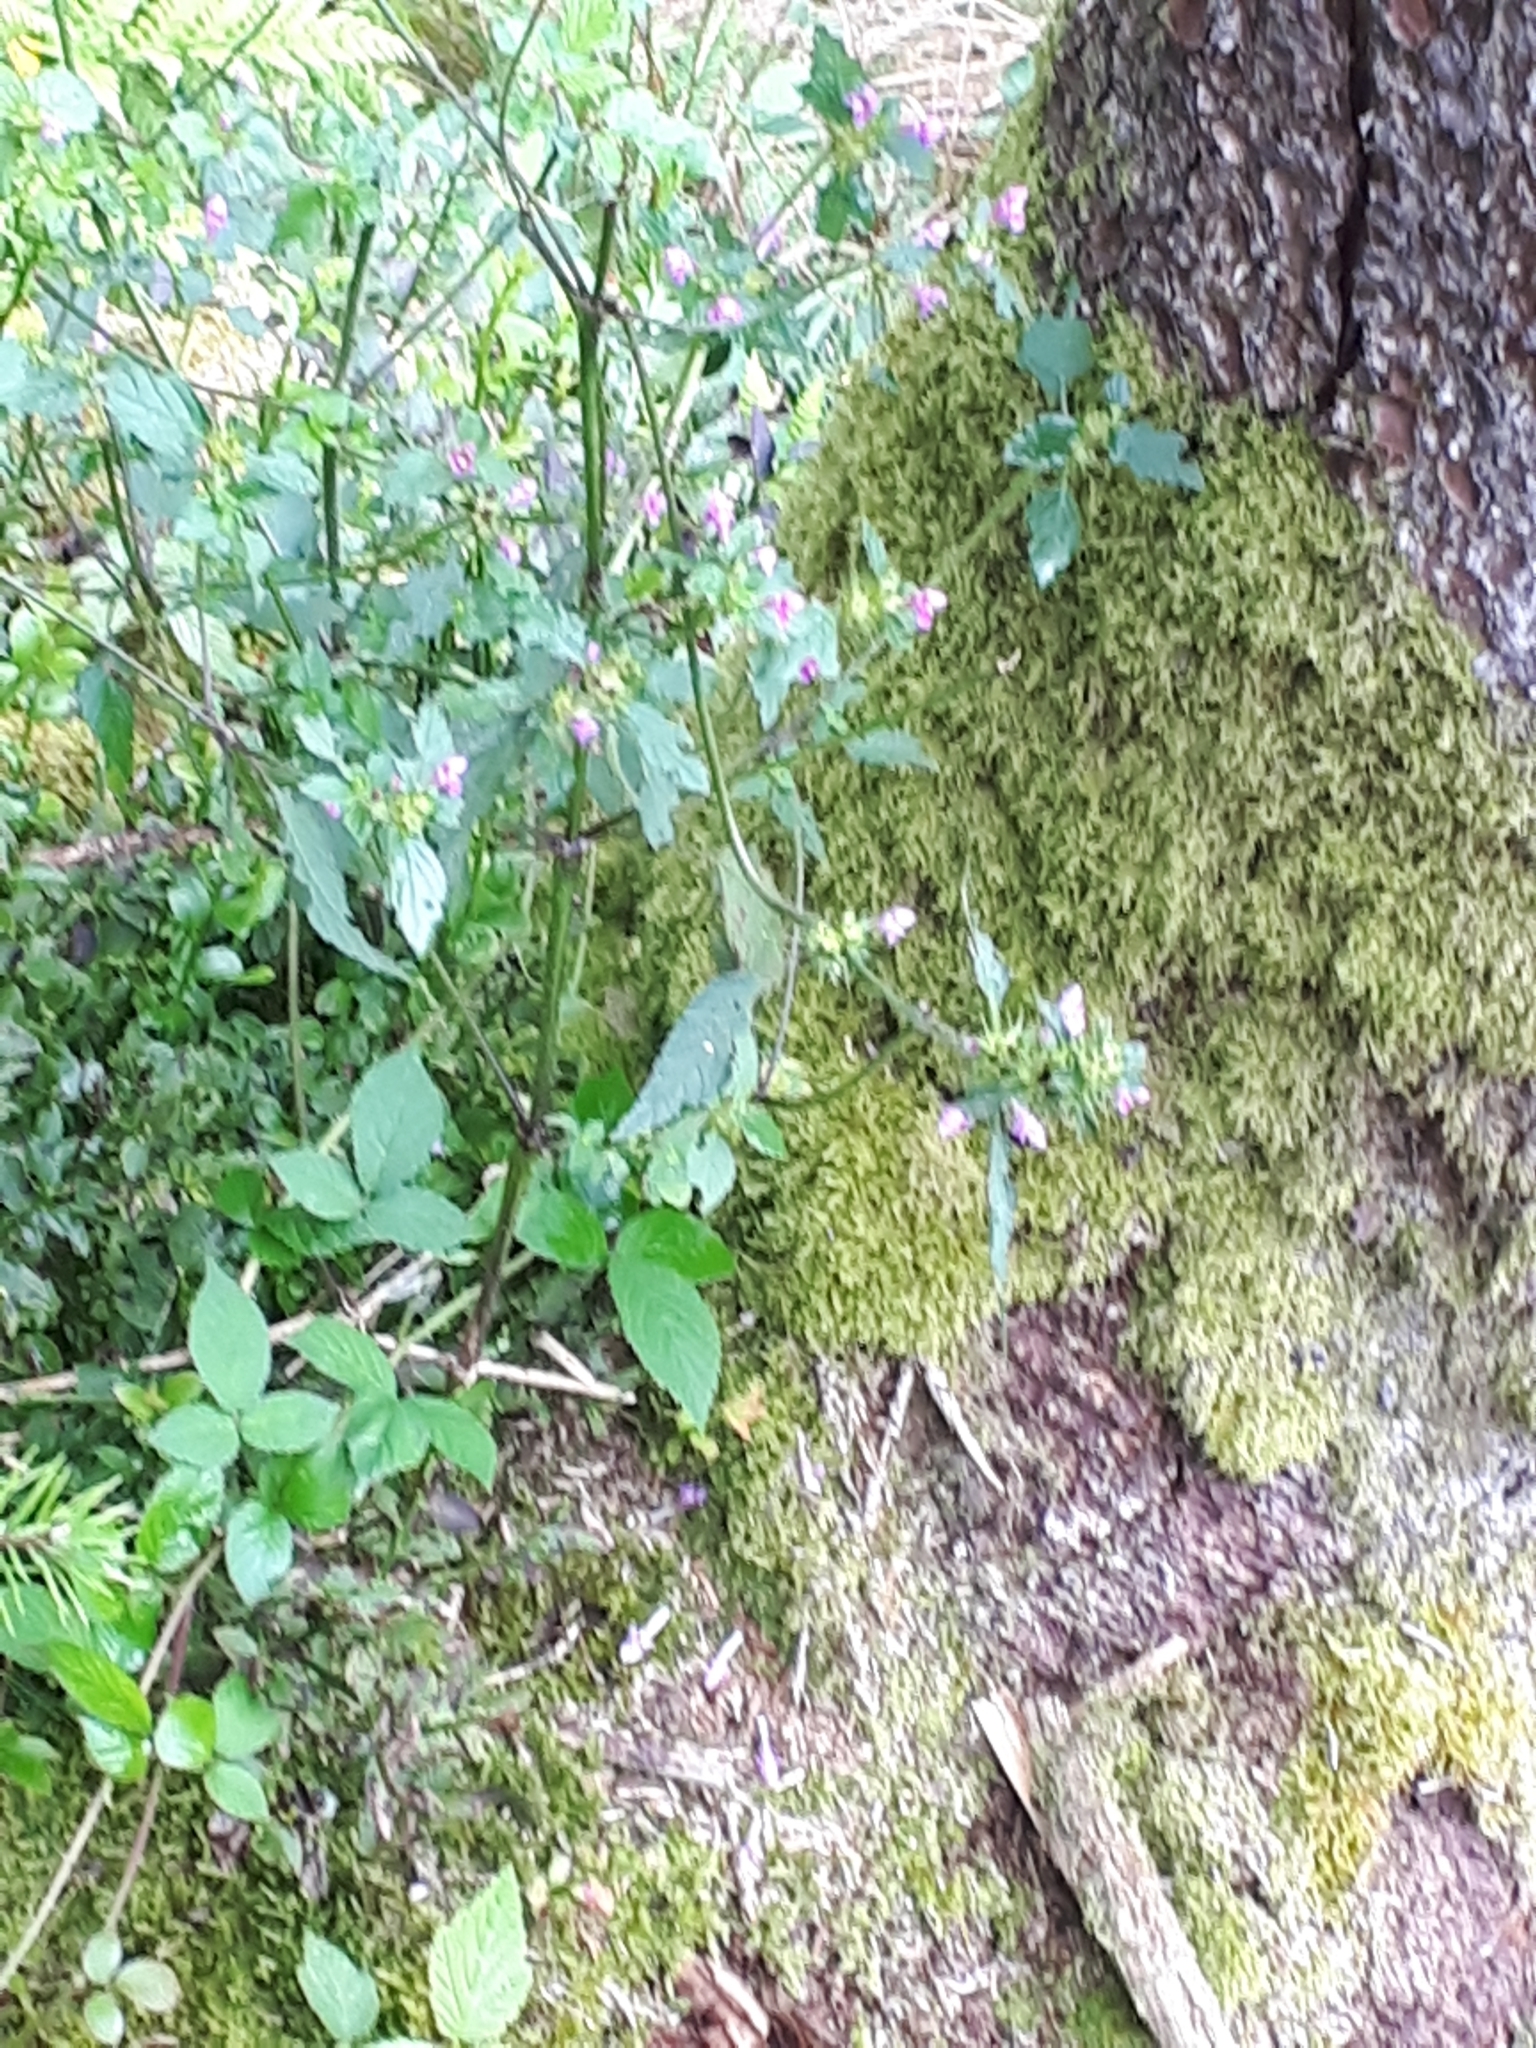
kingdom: Plantae
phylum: Tracheophyta
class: Magnoliopsida
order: Lamiales
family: Lamiaceae
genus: Galeopsis
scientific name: Galeopsis tetrahit
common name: Common hemp-nettle
